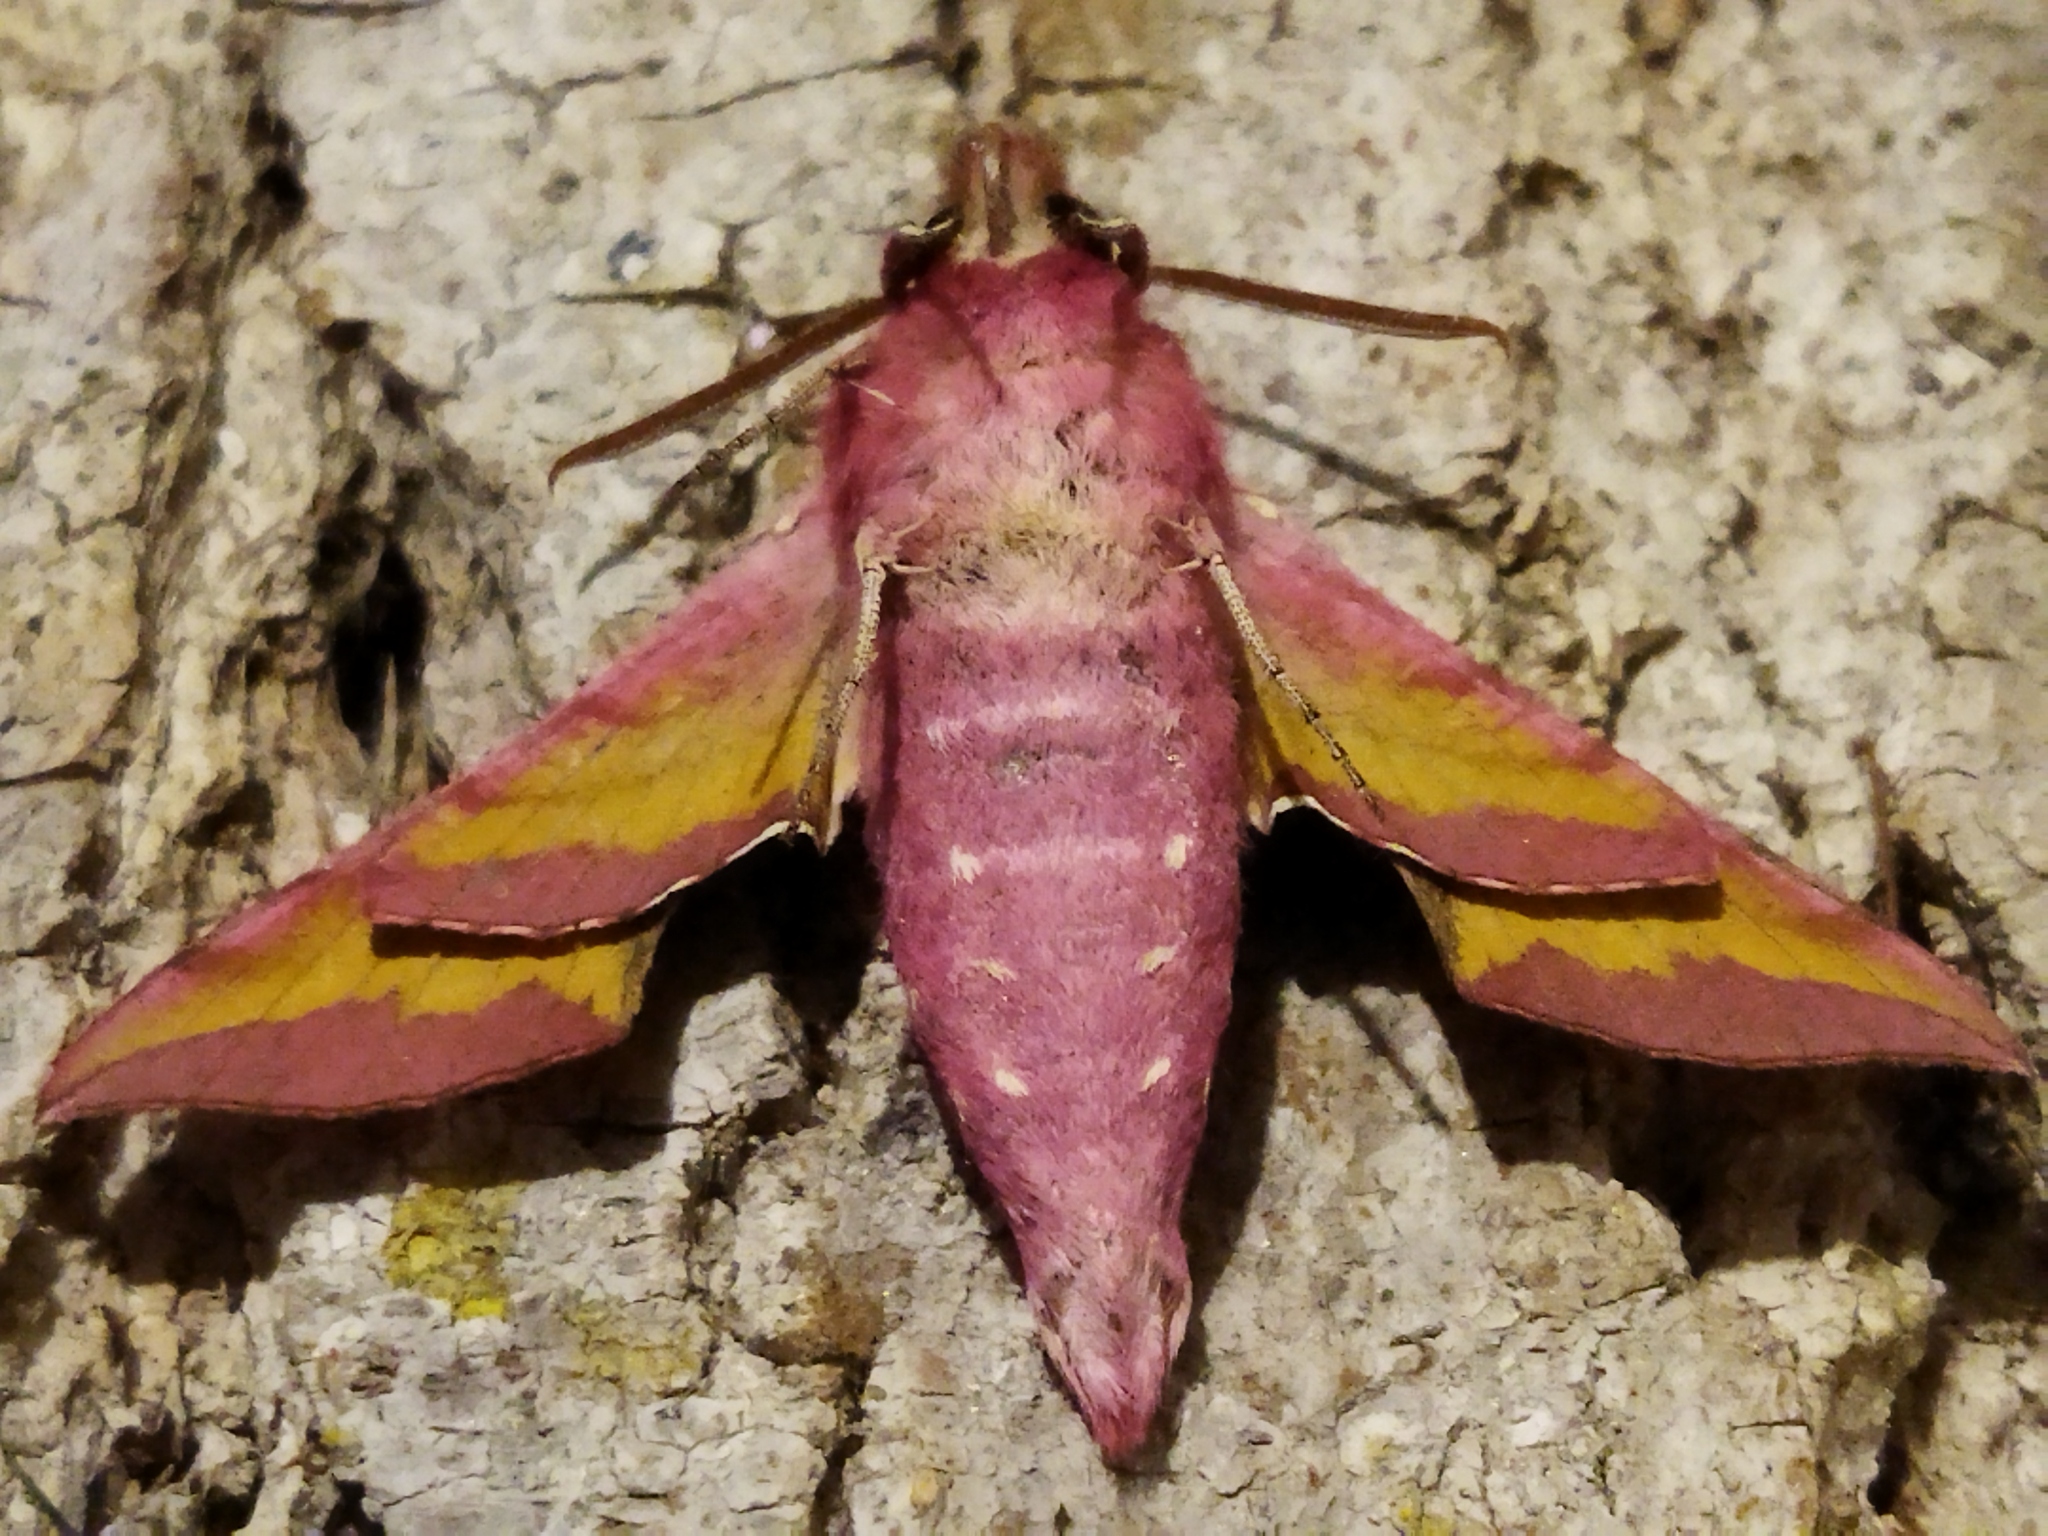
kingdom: Animalia
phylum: Arthropoda
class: Insecta
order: Lepidoptera
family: Sphingidae
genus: Deilephila
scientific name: Deilephila porcellus
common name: Small elephant hawk-moth
